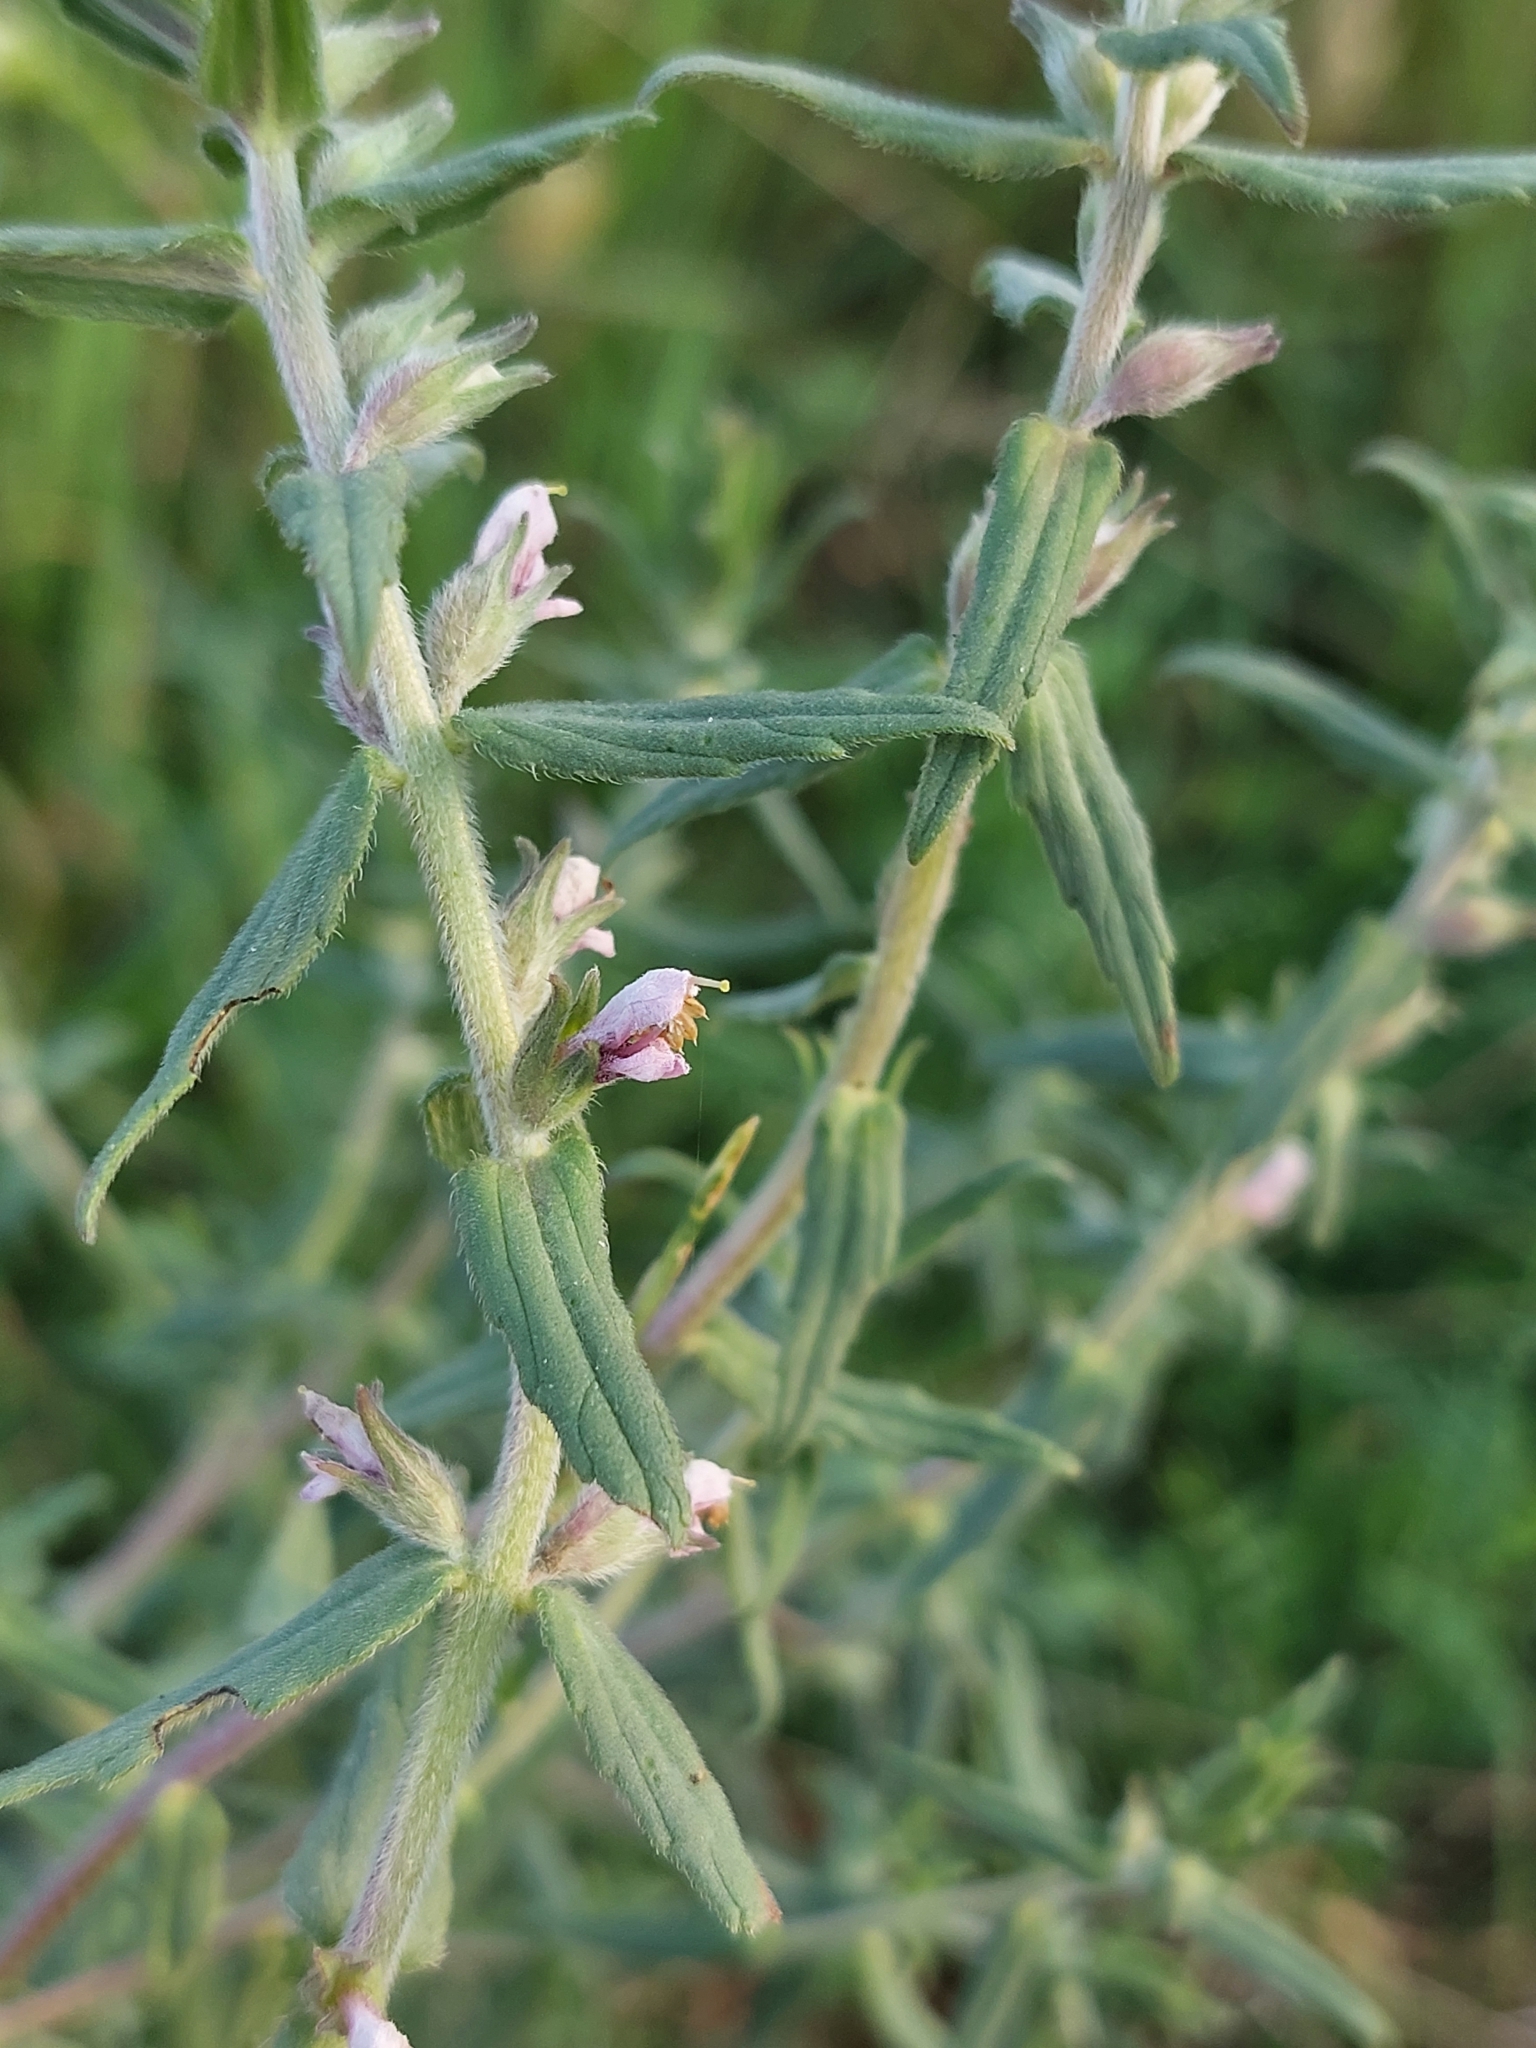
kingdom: Plantae
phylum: Tracheophyta
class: Magnoliopsida
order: Lamiales
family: Orobanchaceae
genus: Odontites
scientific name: Odontites vulgaris
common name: Broomrape
